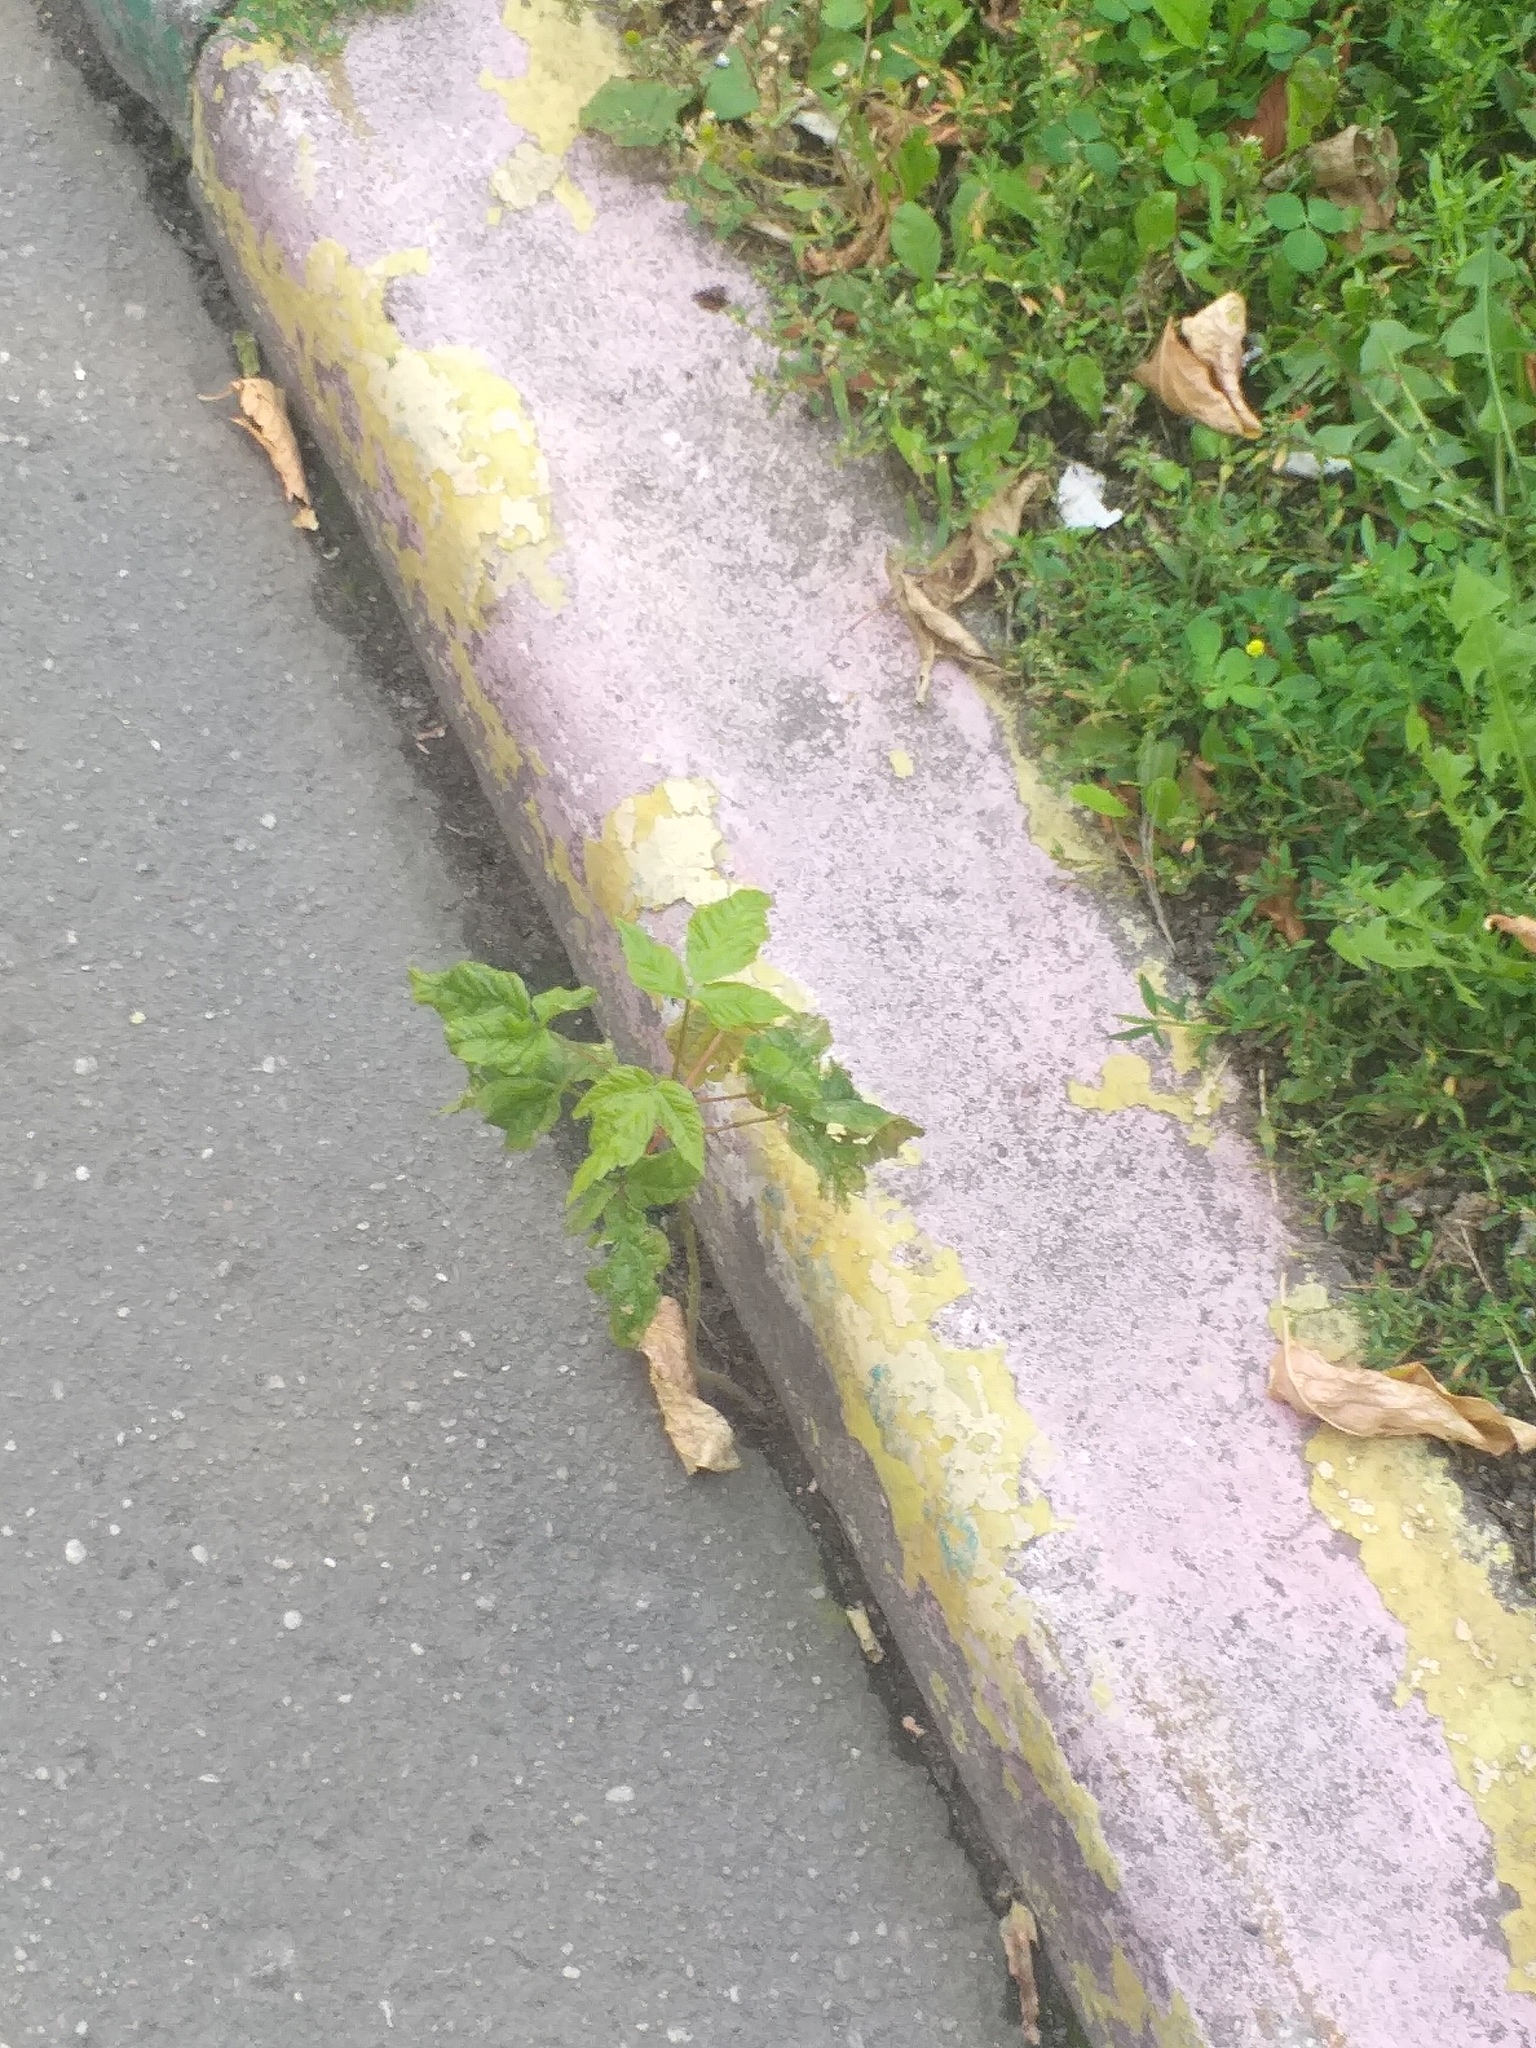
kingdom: Plantae
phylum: Tracheophyta
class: Magnoliopsida
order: Sapindales
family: Sapindaceae
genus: Acer
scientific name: Acer negundo
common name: Ashleaf maple
